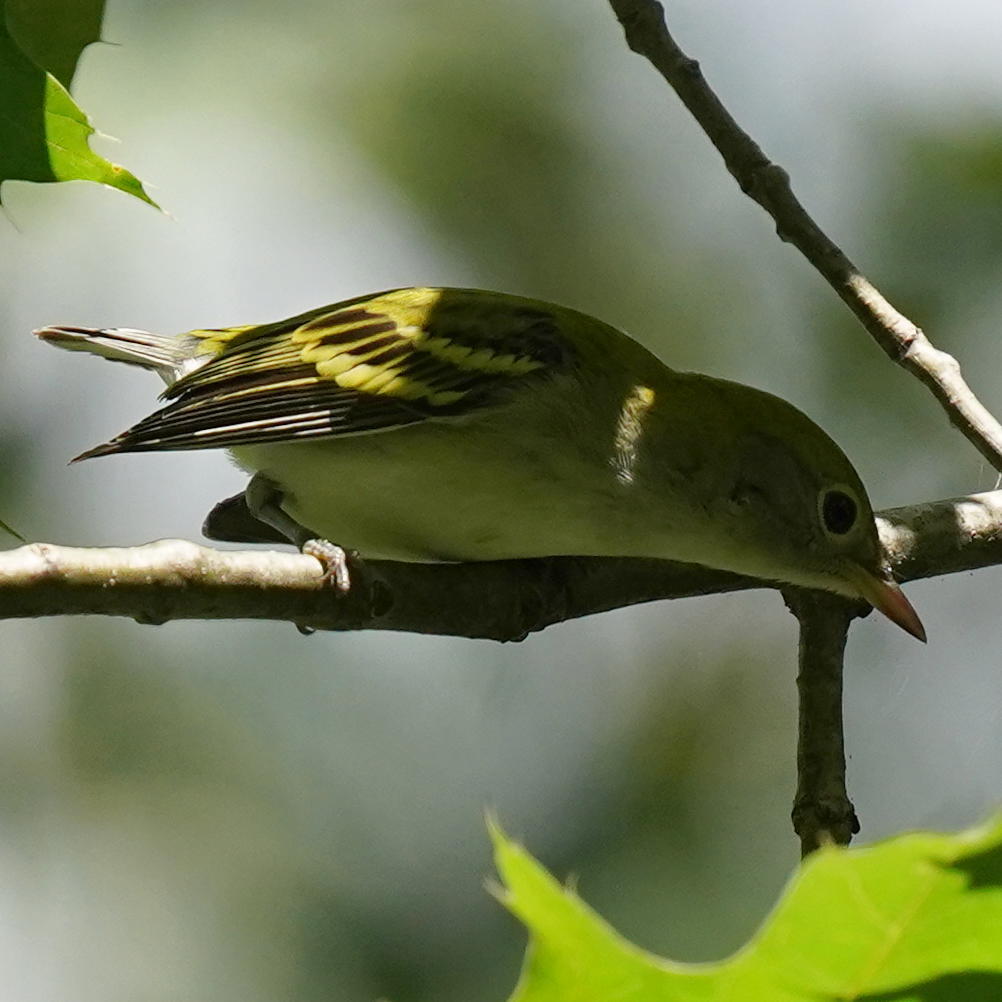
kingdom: Animalia
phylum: Chordata
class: Aves
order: Passeriformes
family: Parulidae
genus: Setophaga
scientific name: Setophaga pensylvanica
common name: Chestnut-sided warbler
